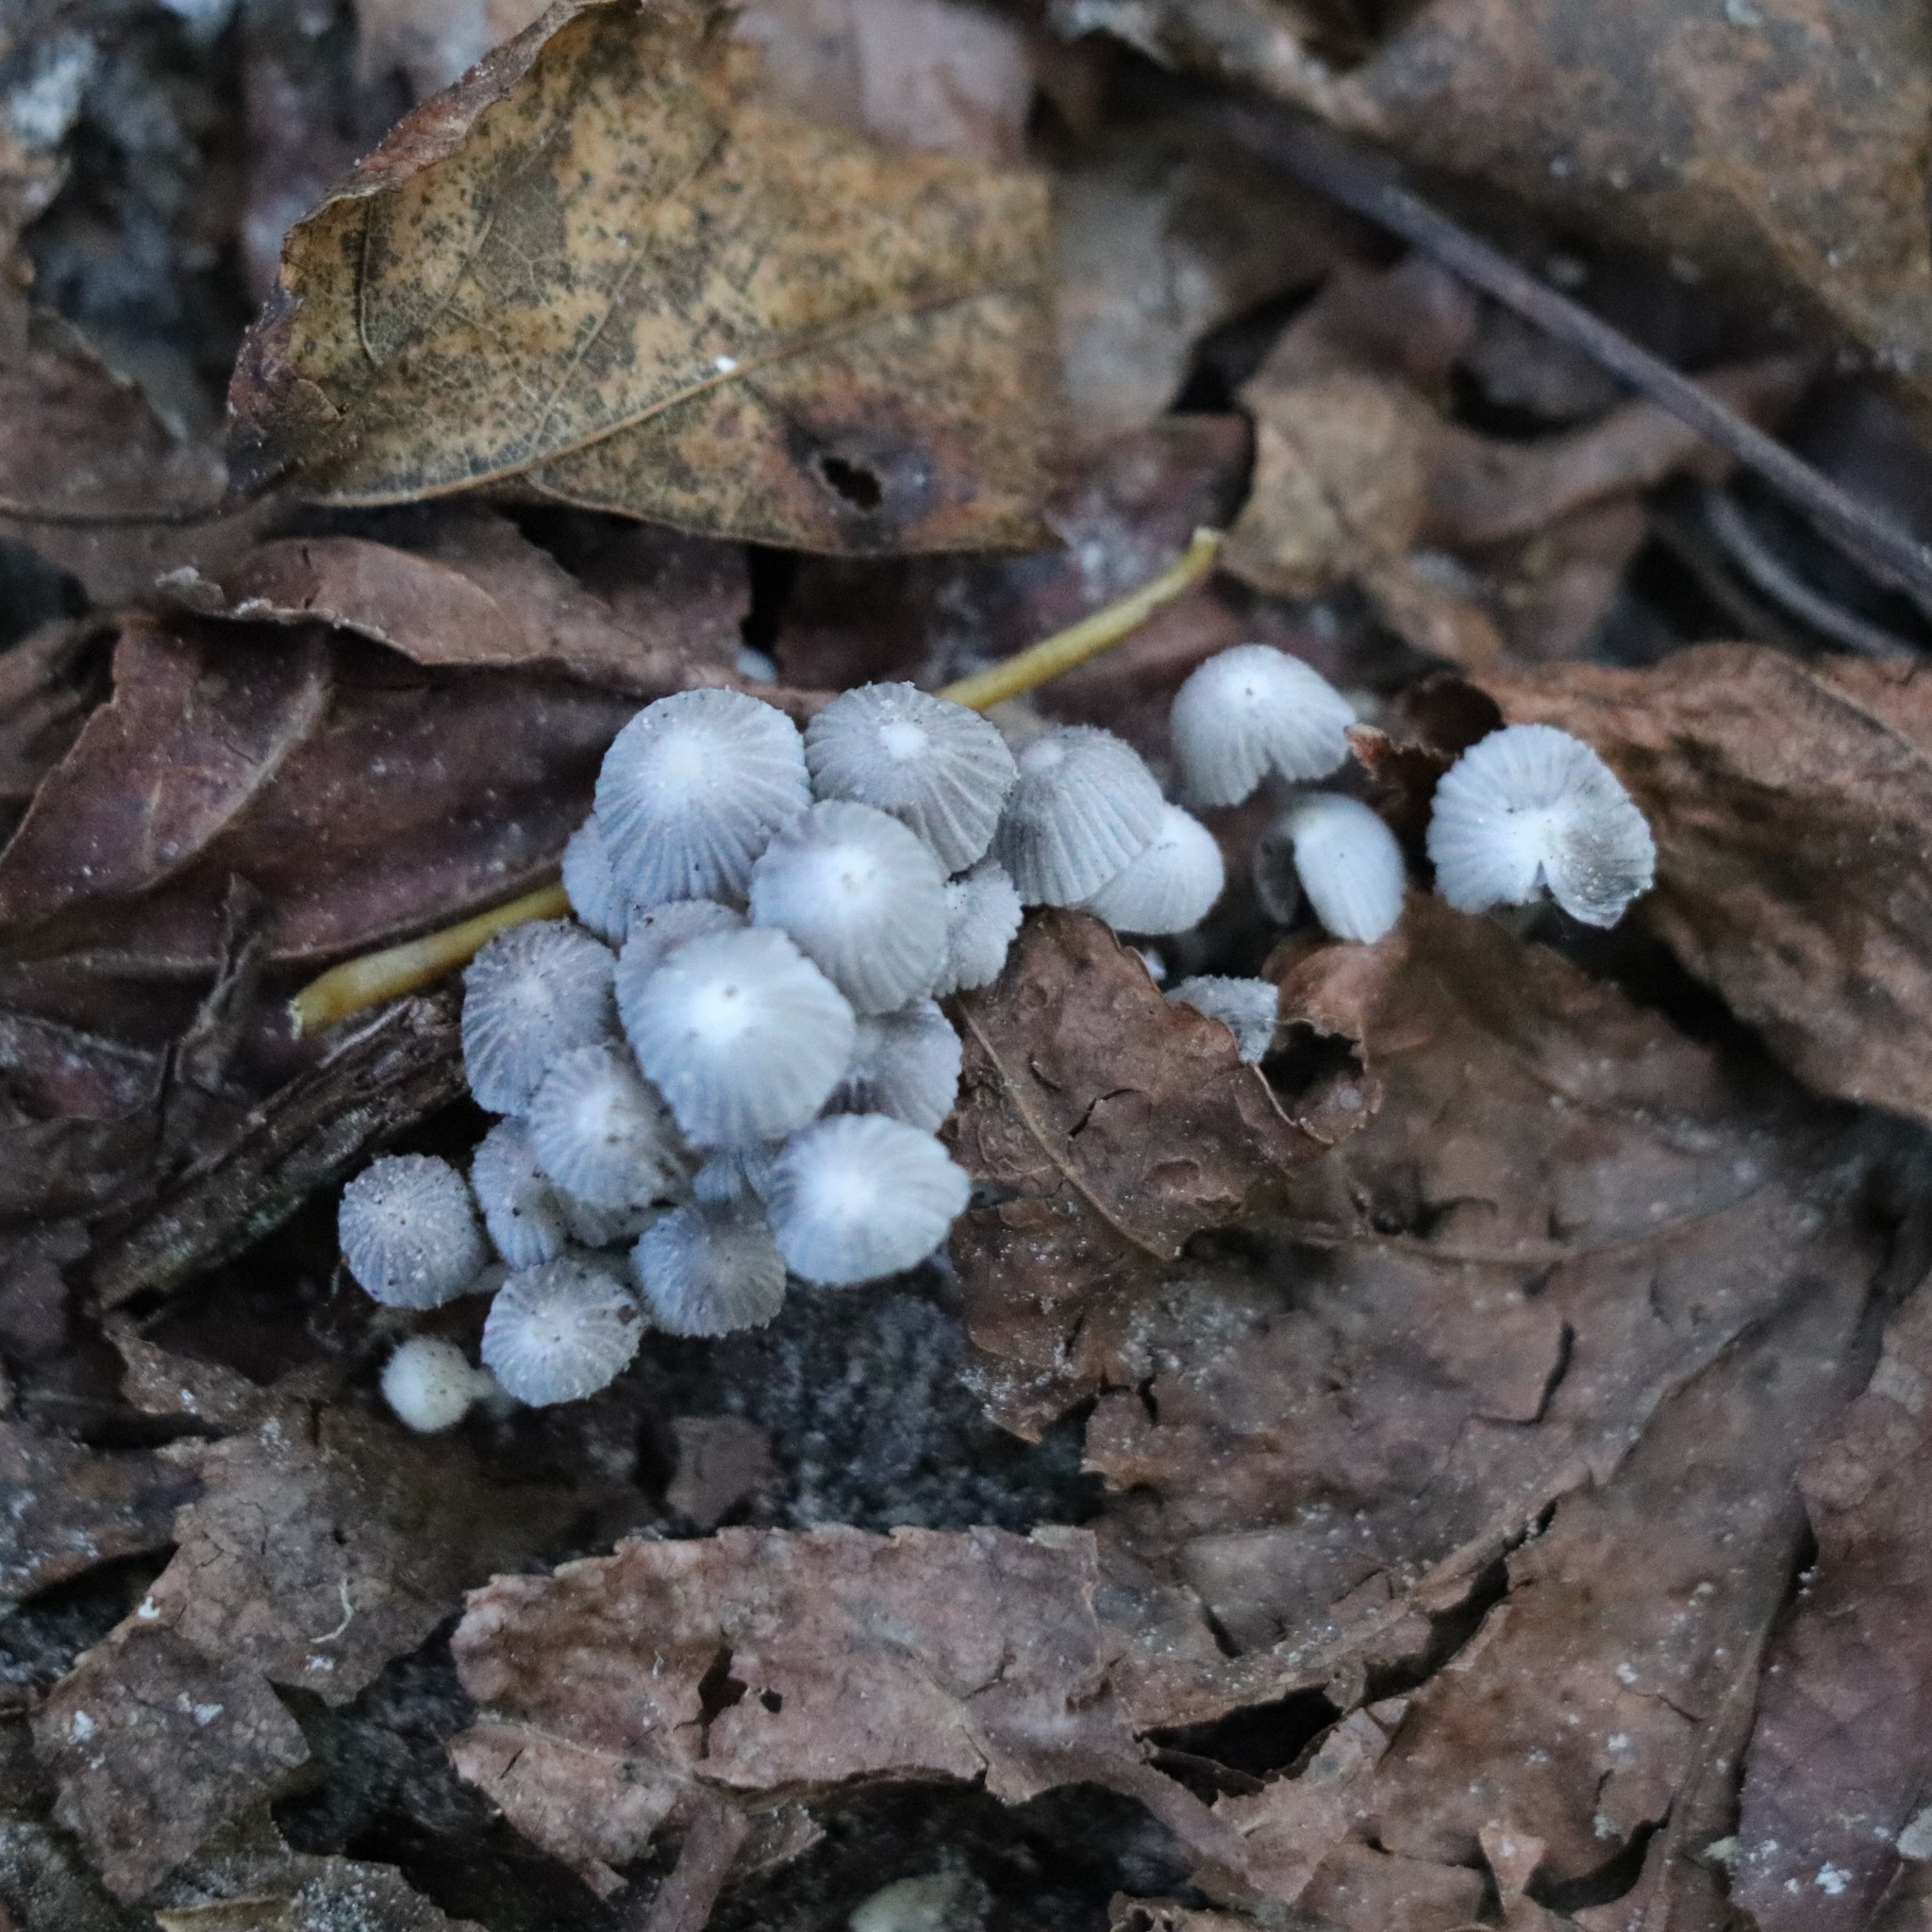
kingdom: Fungi
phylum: Basidiomycota
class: Agaricomycetes
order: Agaricales
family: Psathyrellaceae
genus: Coprinellus
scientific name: Coprinellus disseminatus
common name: Fairies' bonnets
